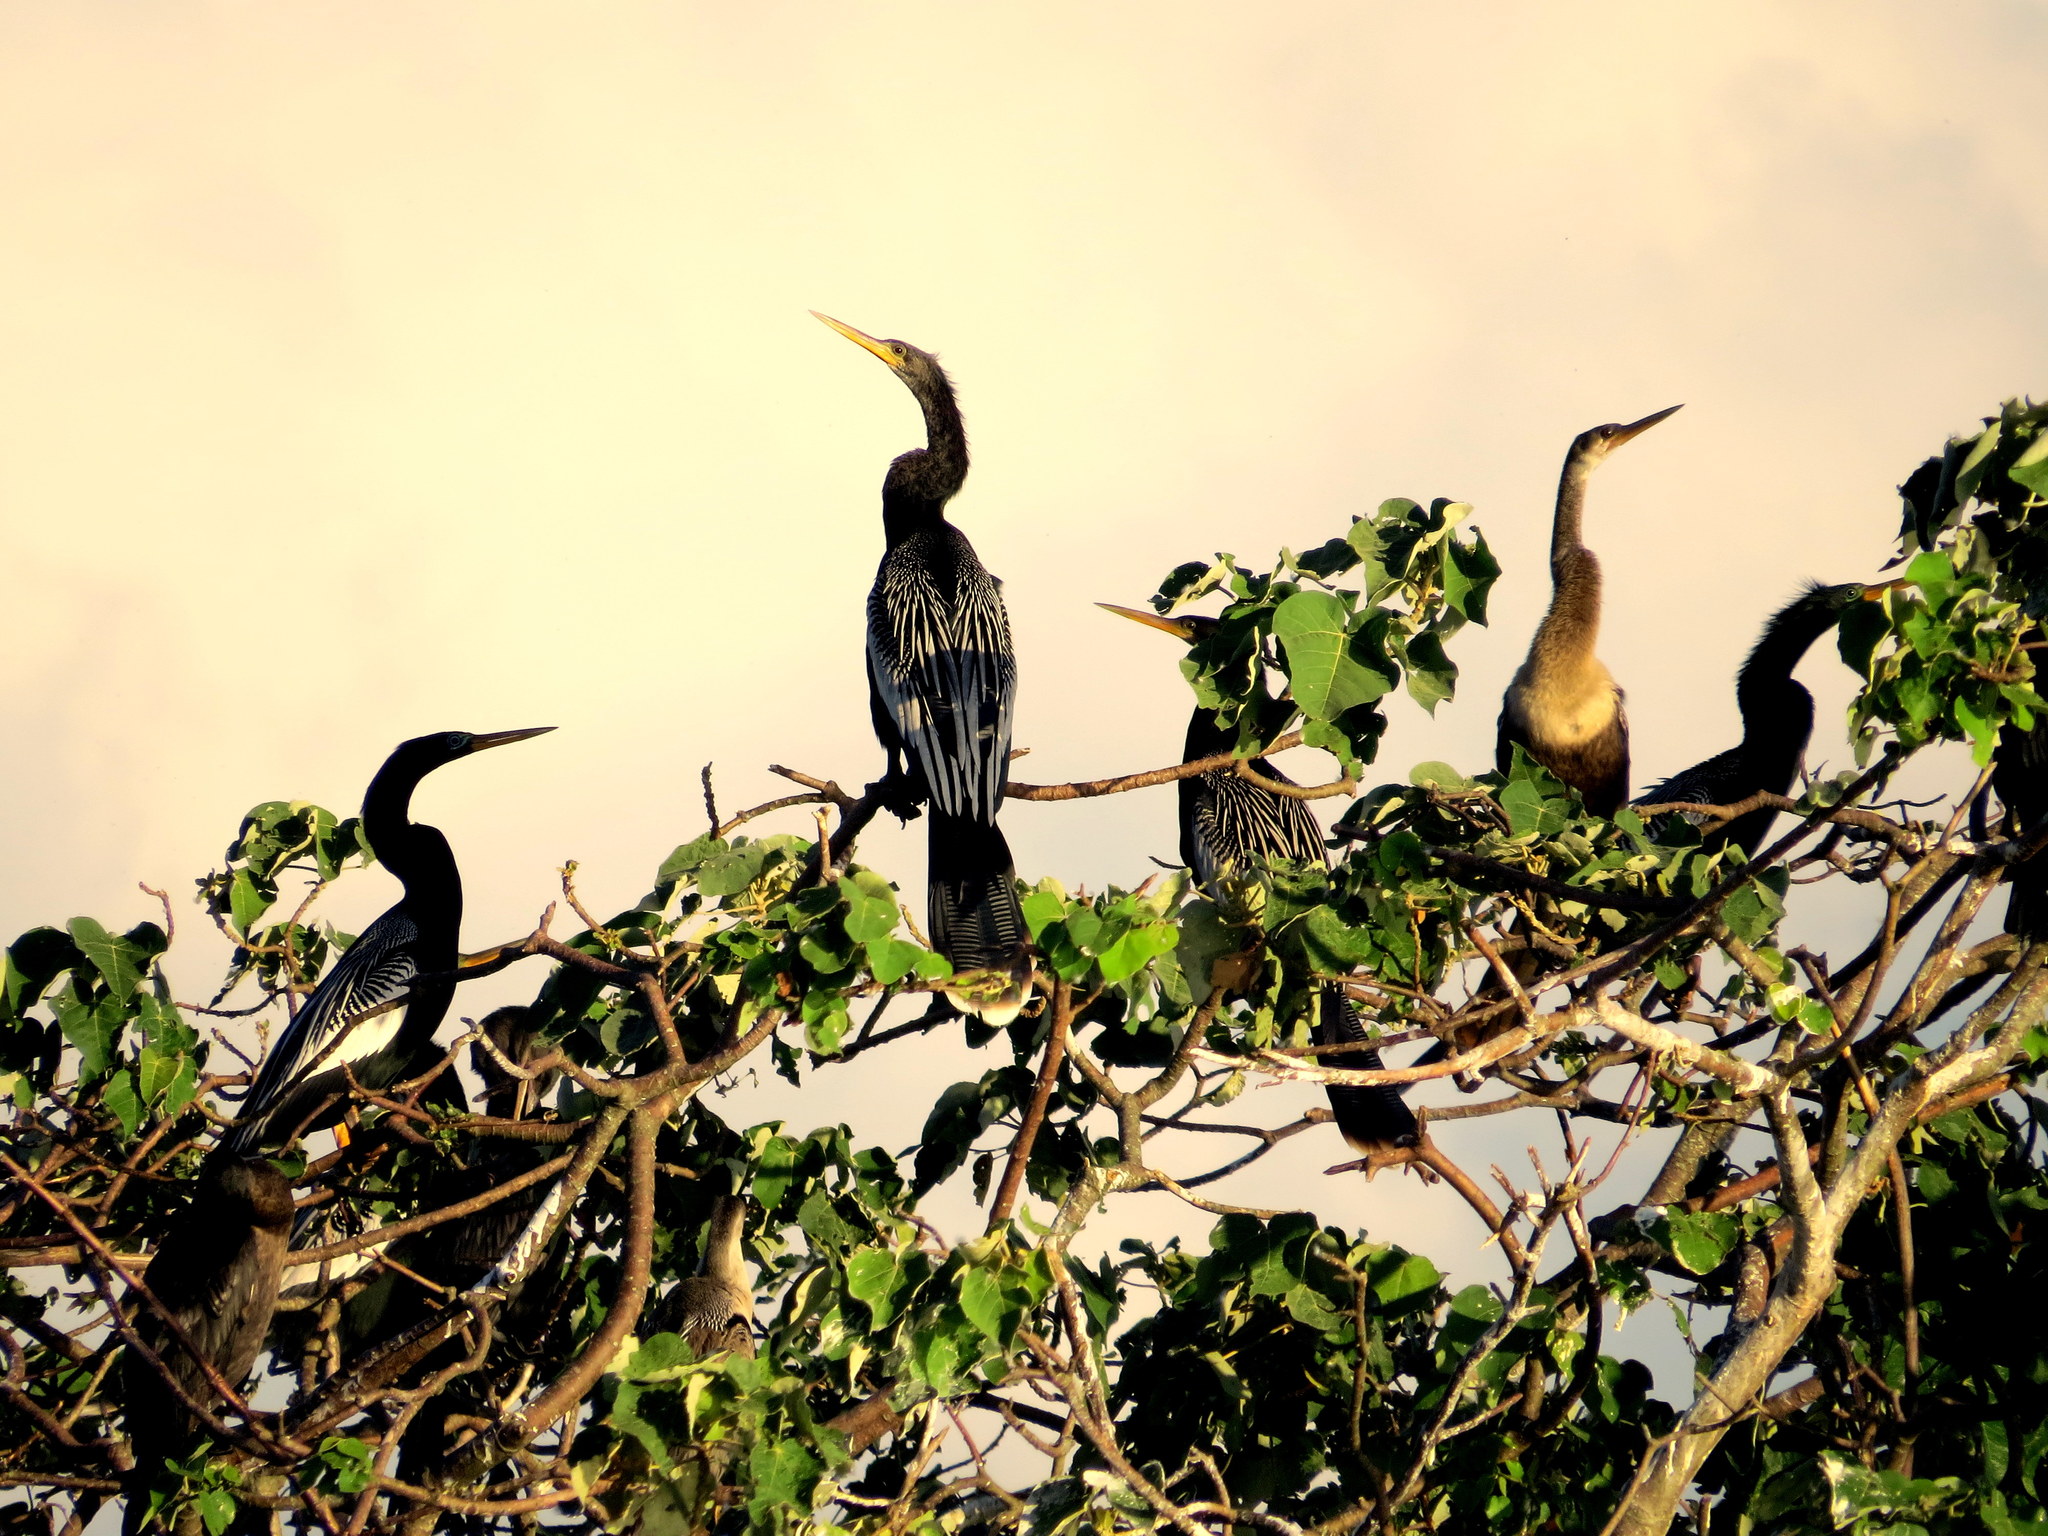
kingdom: Animalia
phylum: Chordata
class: Aves
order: Suliformes
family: Anhingidae
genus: Anhinga
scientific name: Anhinga anhinga
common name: Anhinga
